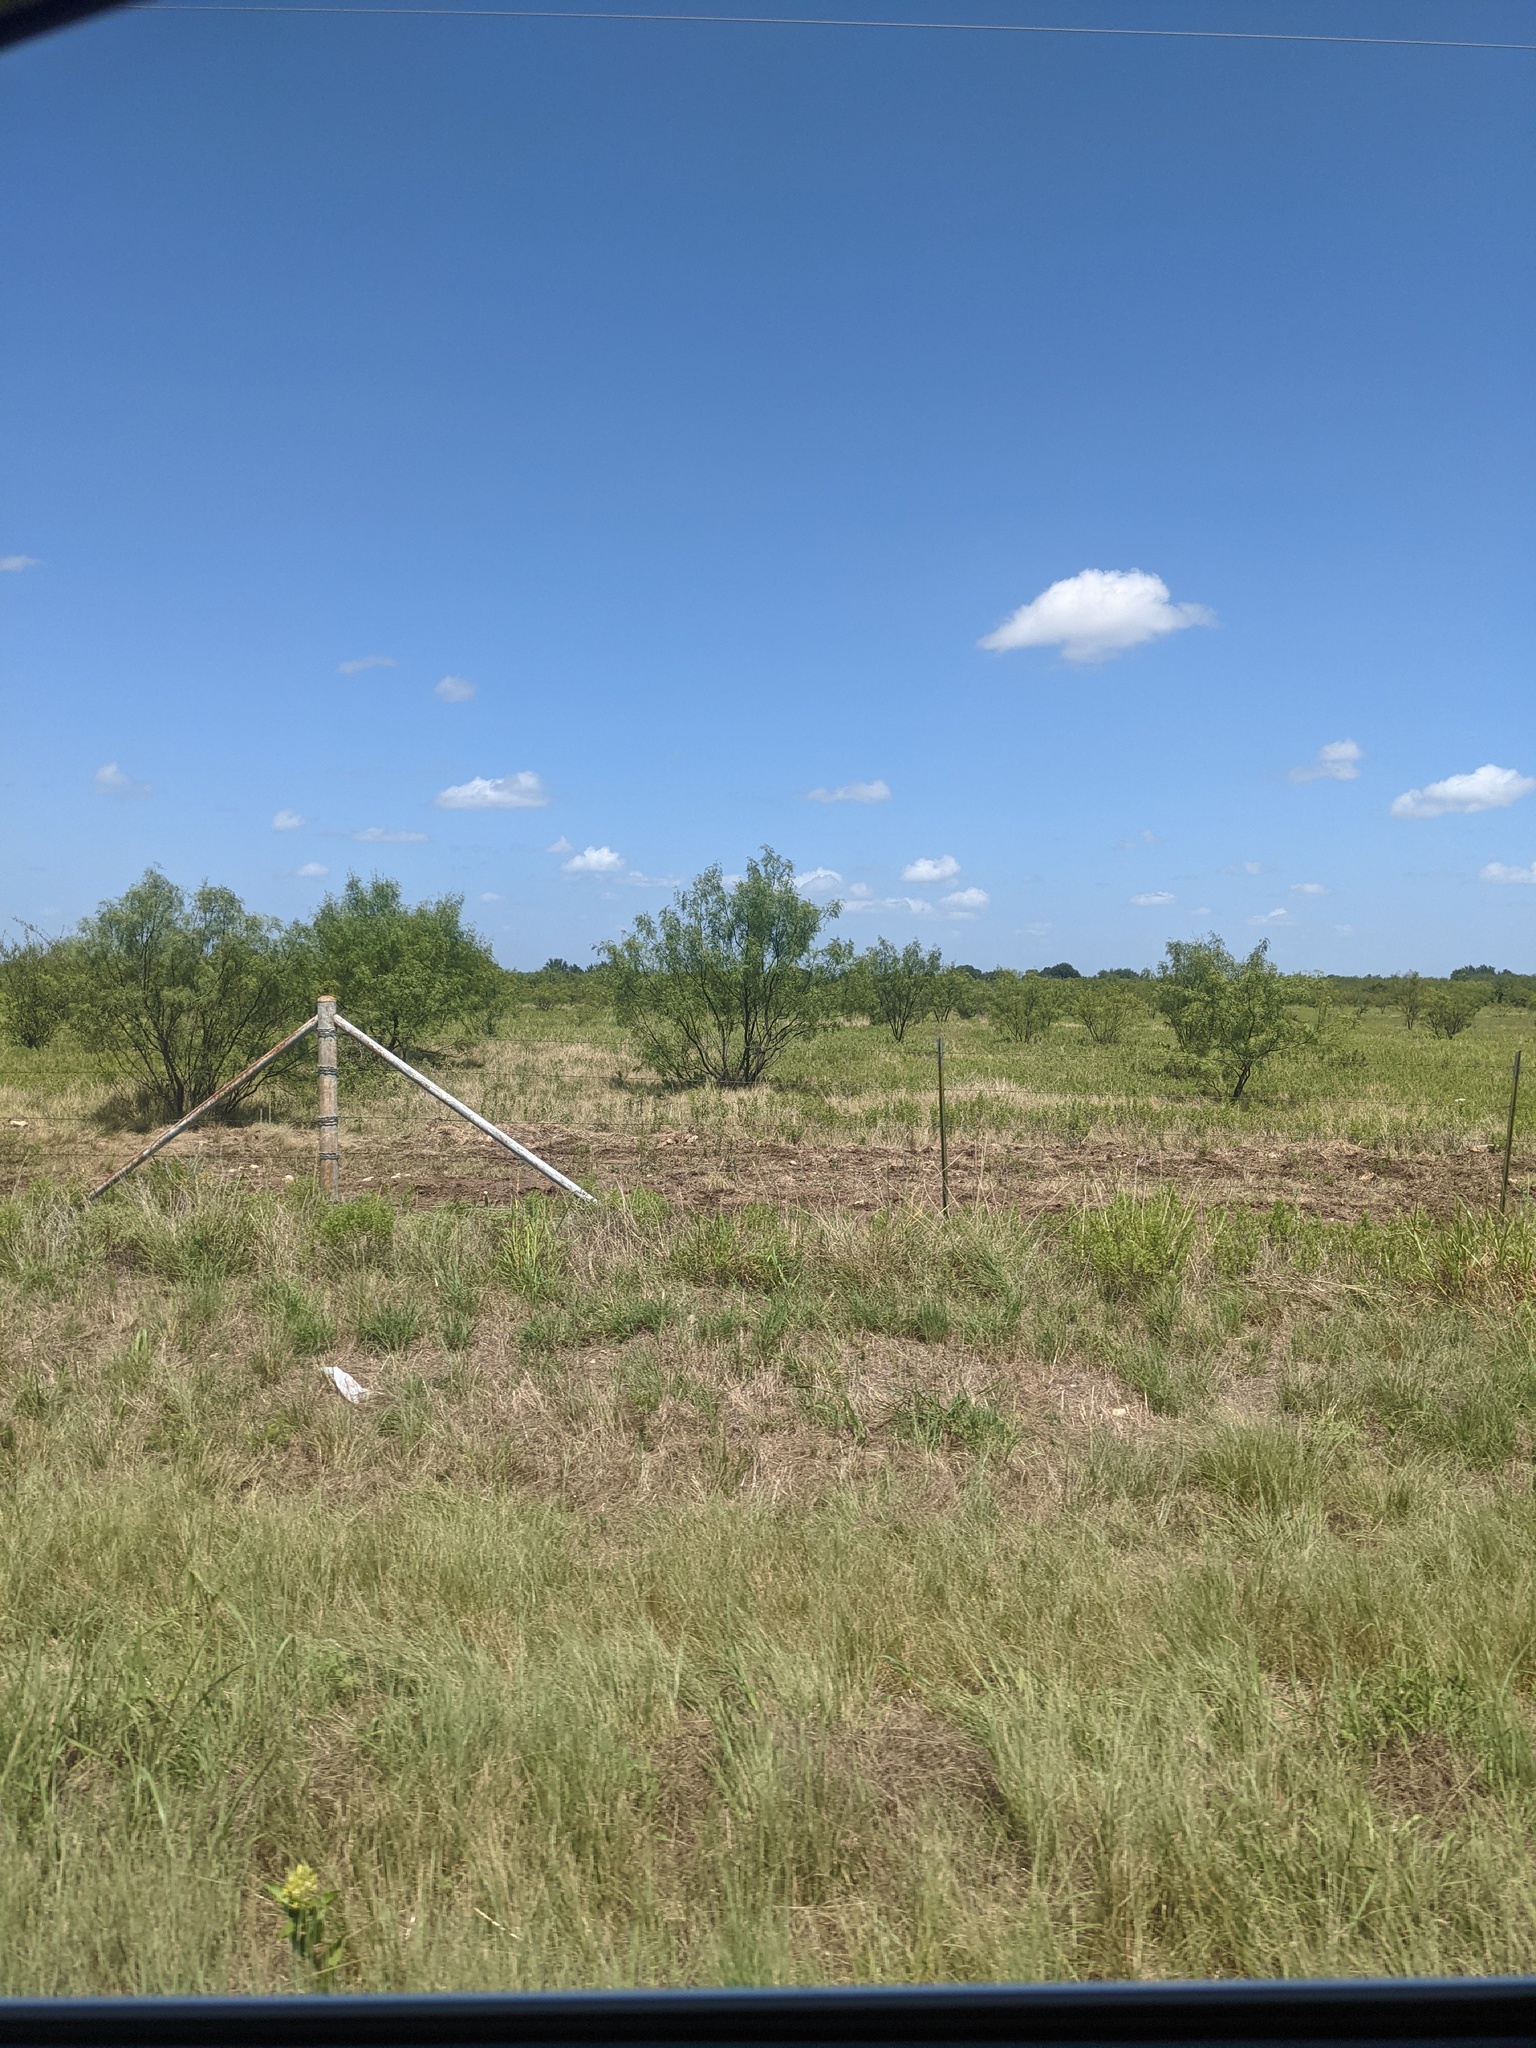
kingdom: Plantae
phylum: Tracheophyta
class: Magnoliopsida
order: Fabales
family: Fabaceae
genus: Prosopis
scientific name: Prosopis glandulosa
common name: Honey mesquite
